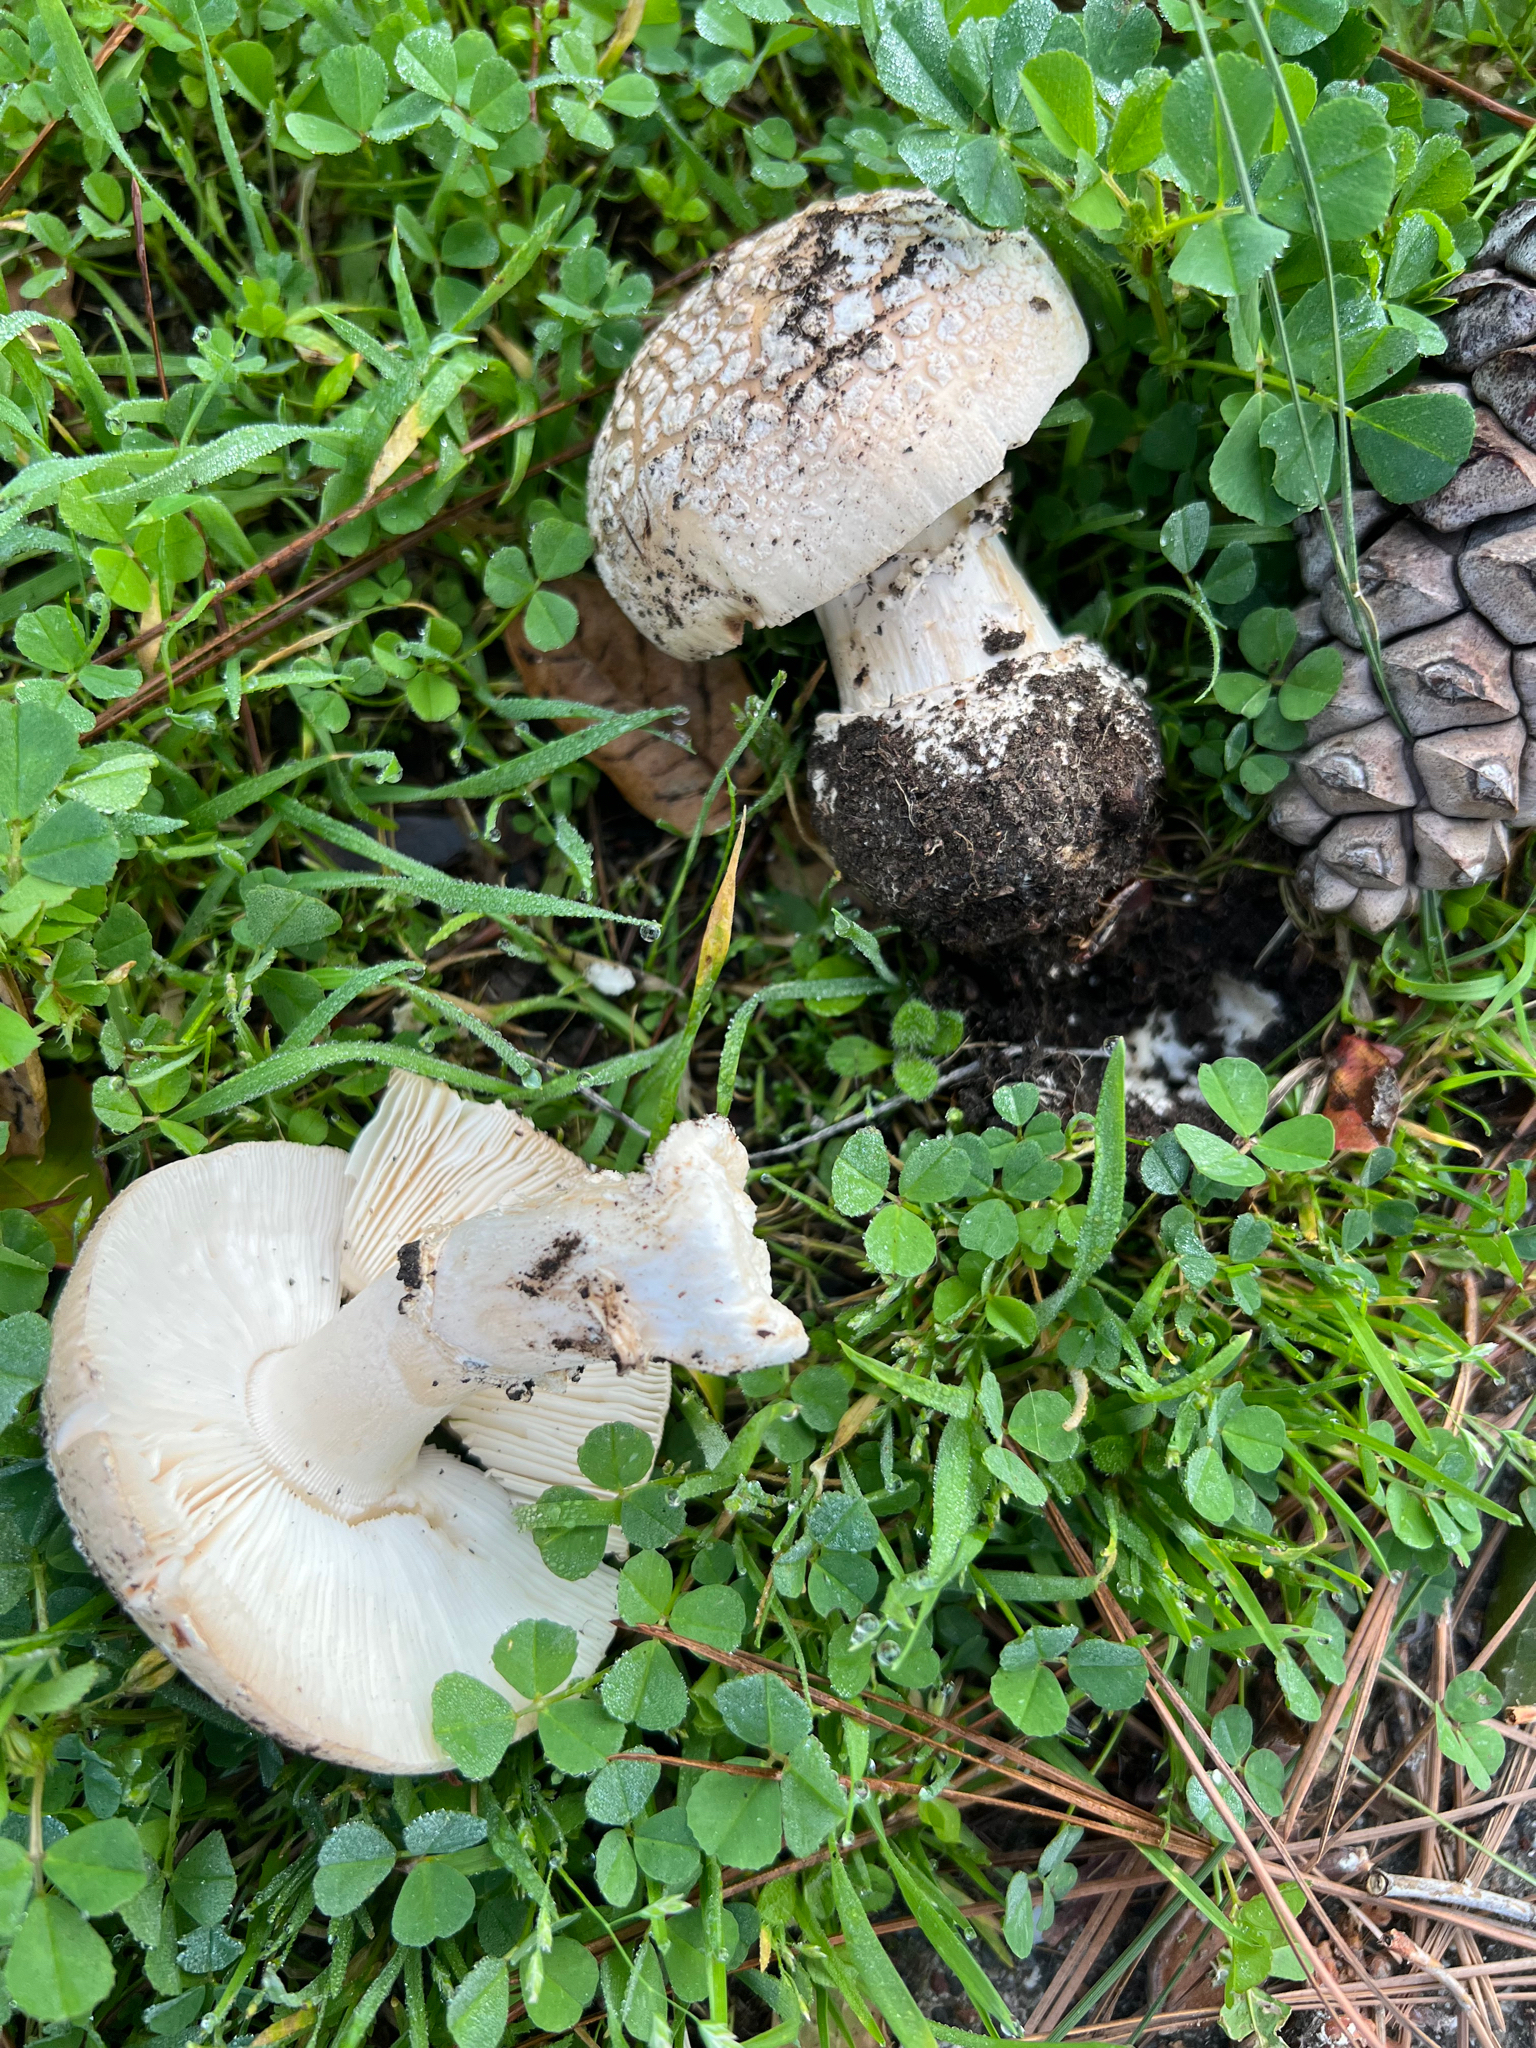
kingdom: Fungi
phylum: Basidiomycota
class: Agaricomycetes
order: Agaricales
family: Amanitaceae
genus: Amanita
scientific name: Amanita pantherinoides
